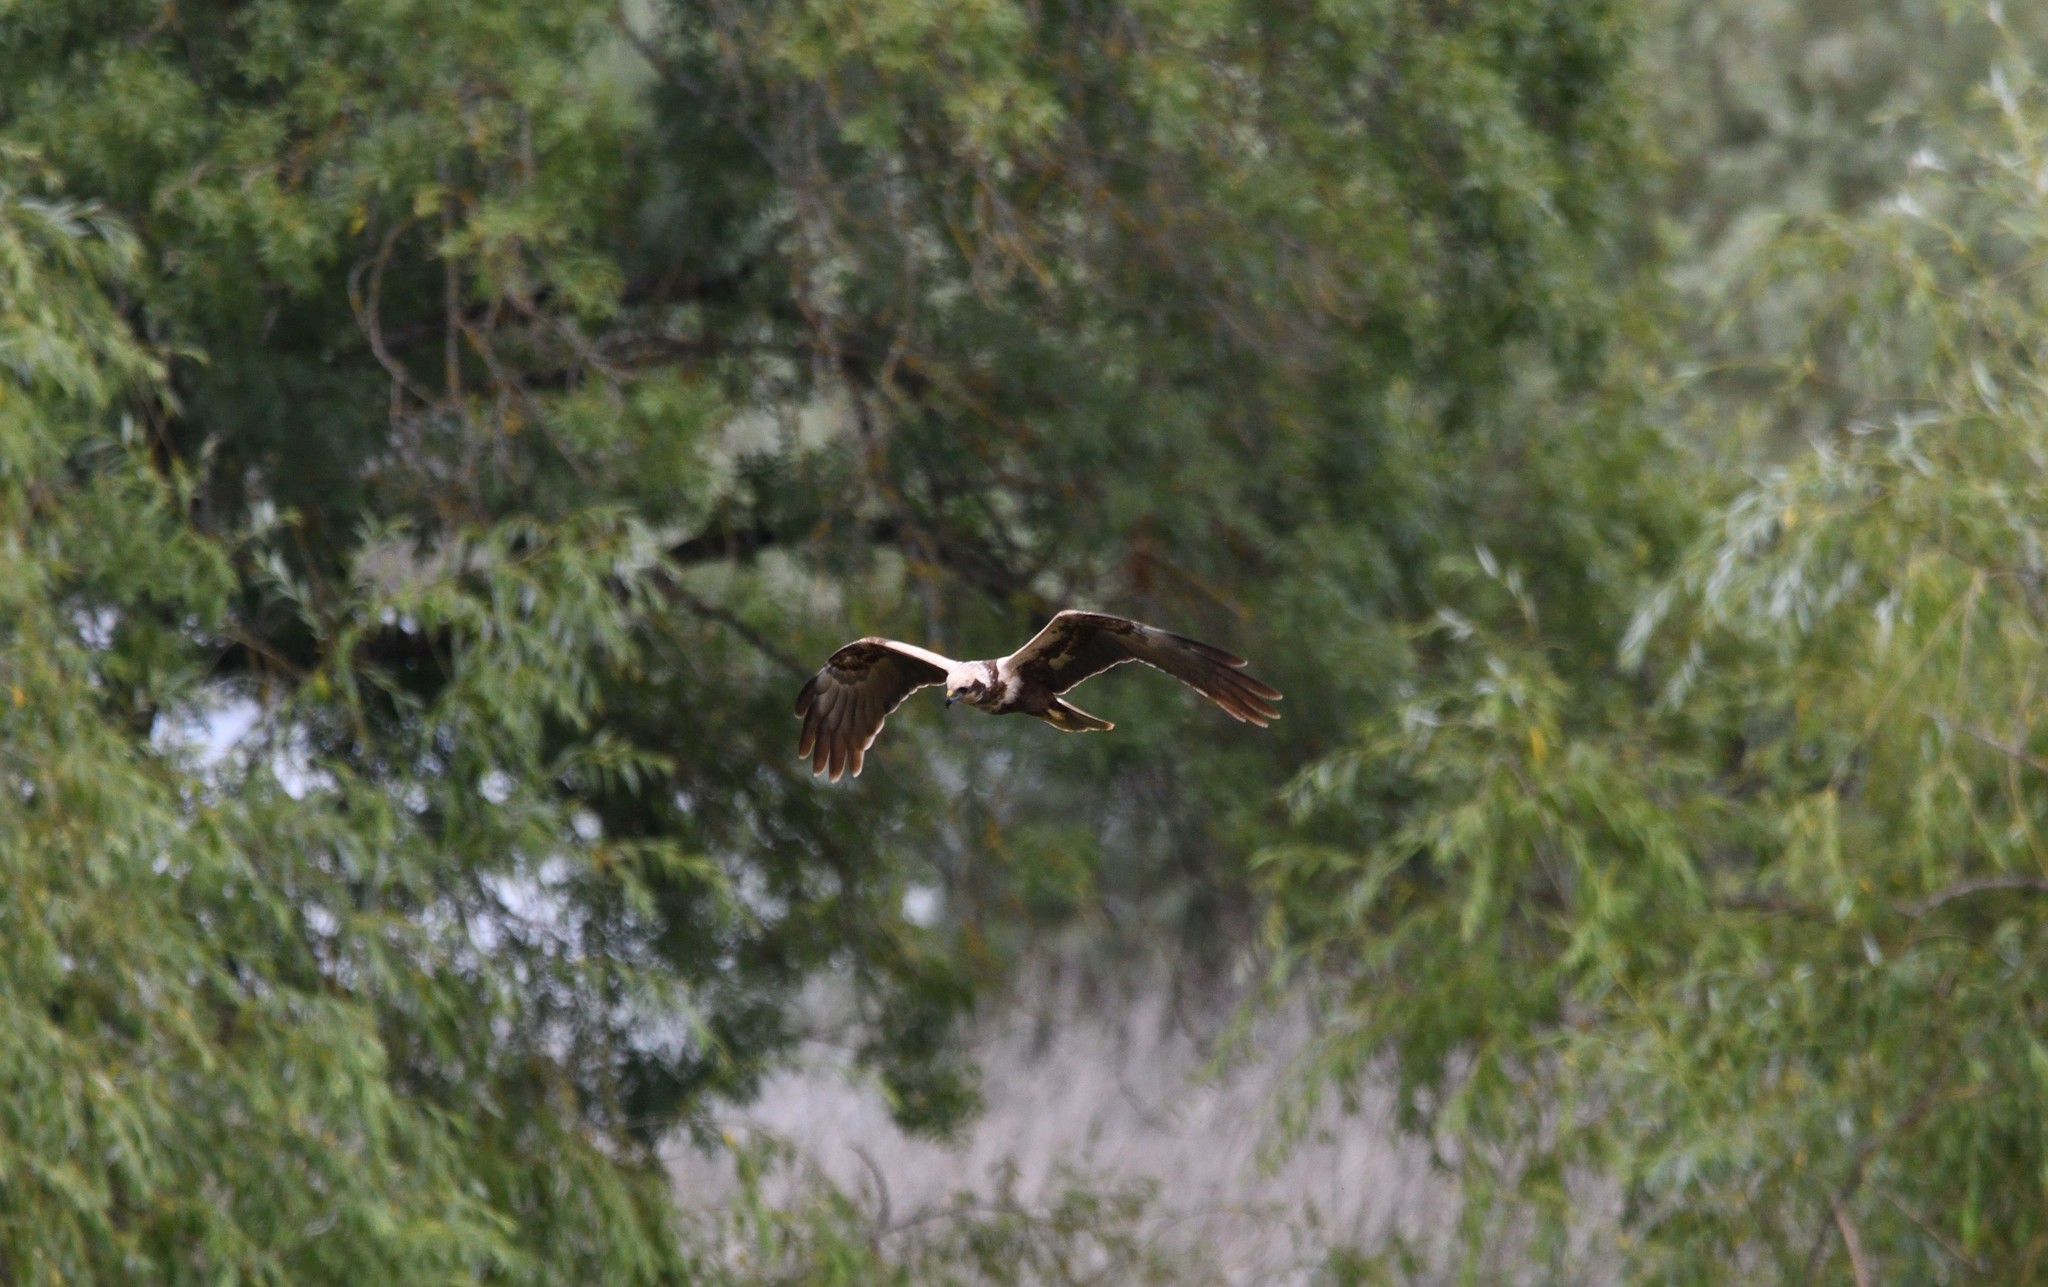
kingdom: Animalia
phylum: Chordata
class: Aves
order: Accipitriformes
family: Accipitridae
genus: Circus
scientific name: Circus aeruginosus
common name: Western marsh harrier
